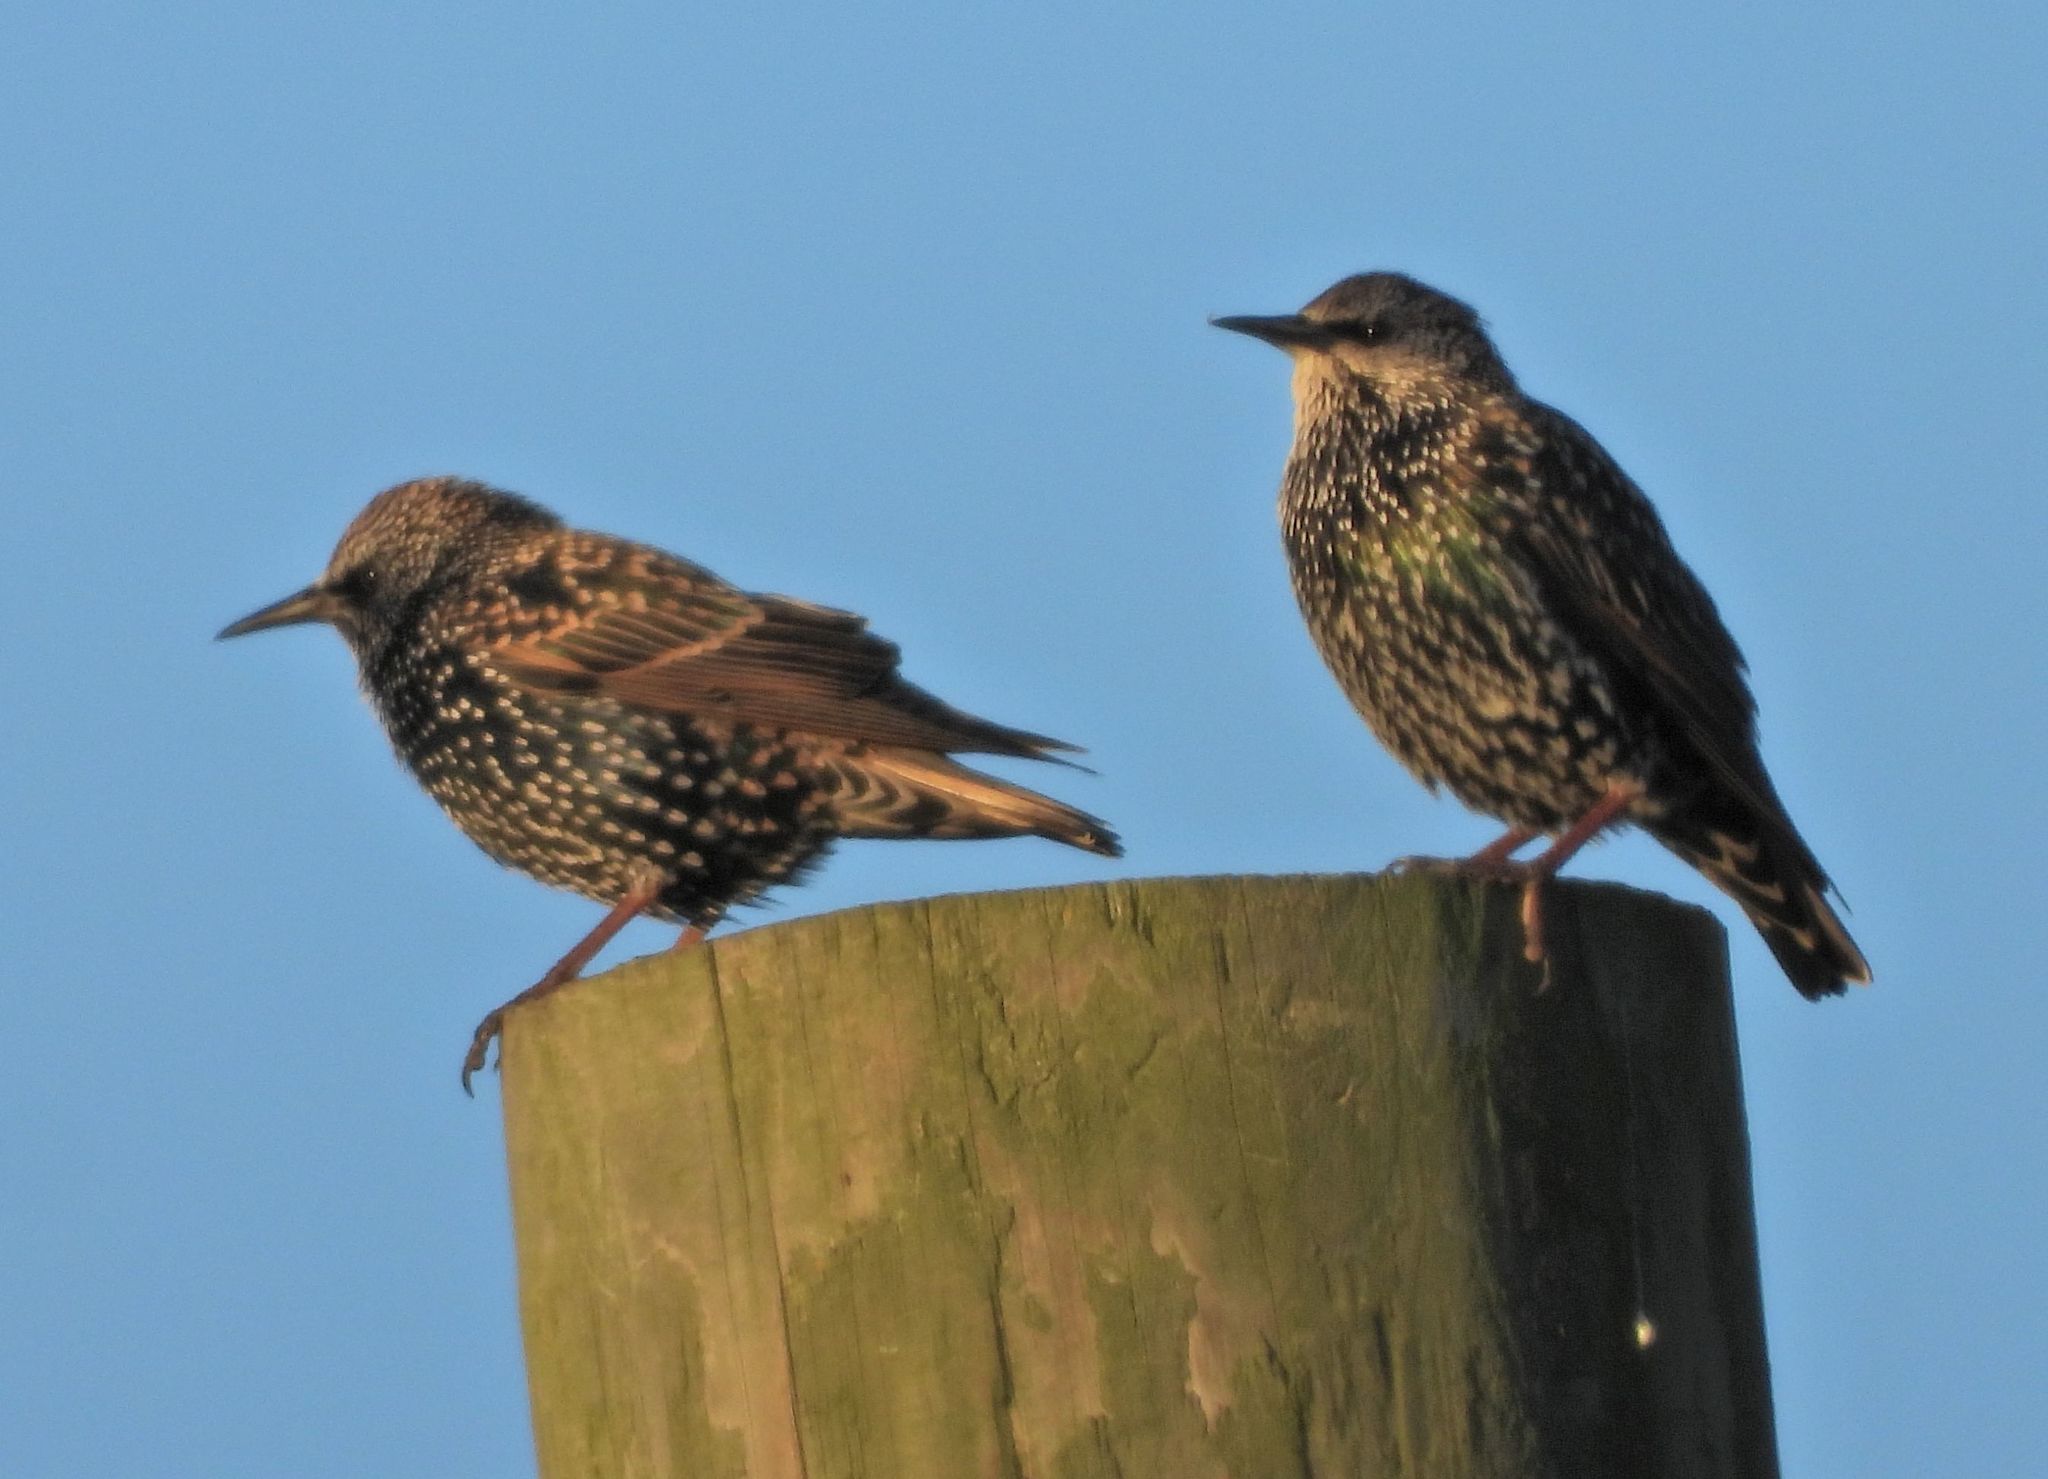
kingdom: Animalia
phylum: Chordata
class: Aves
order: Passeriformes
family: Sturnidae
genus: Sturnus
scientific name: Sturnus vulgaris
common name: Common starling
